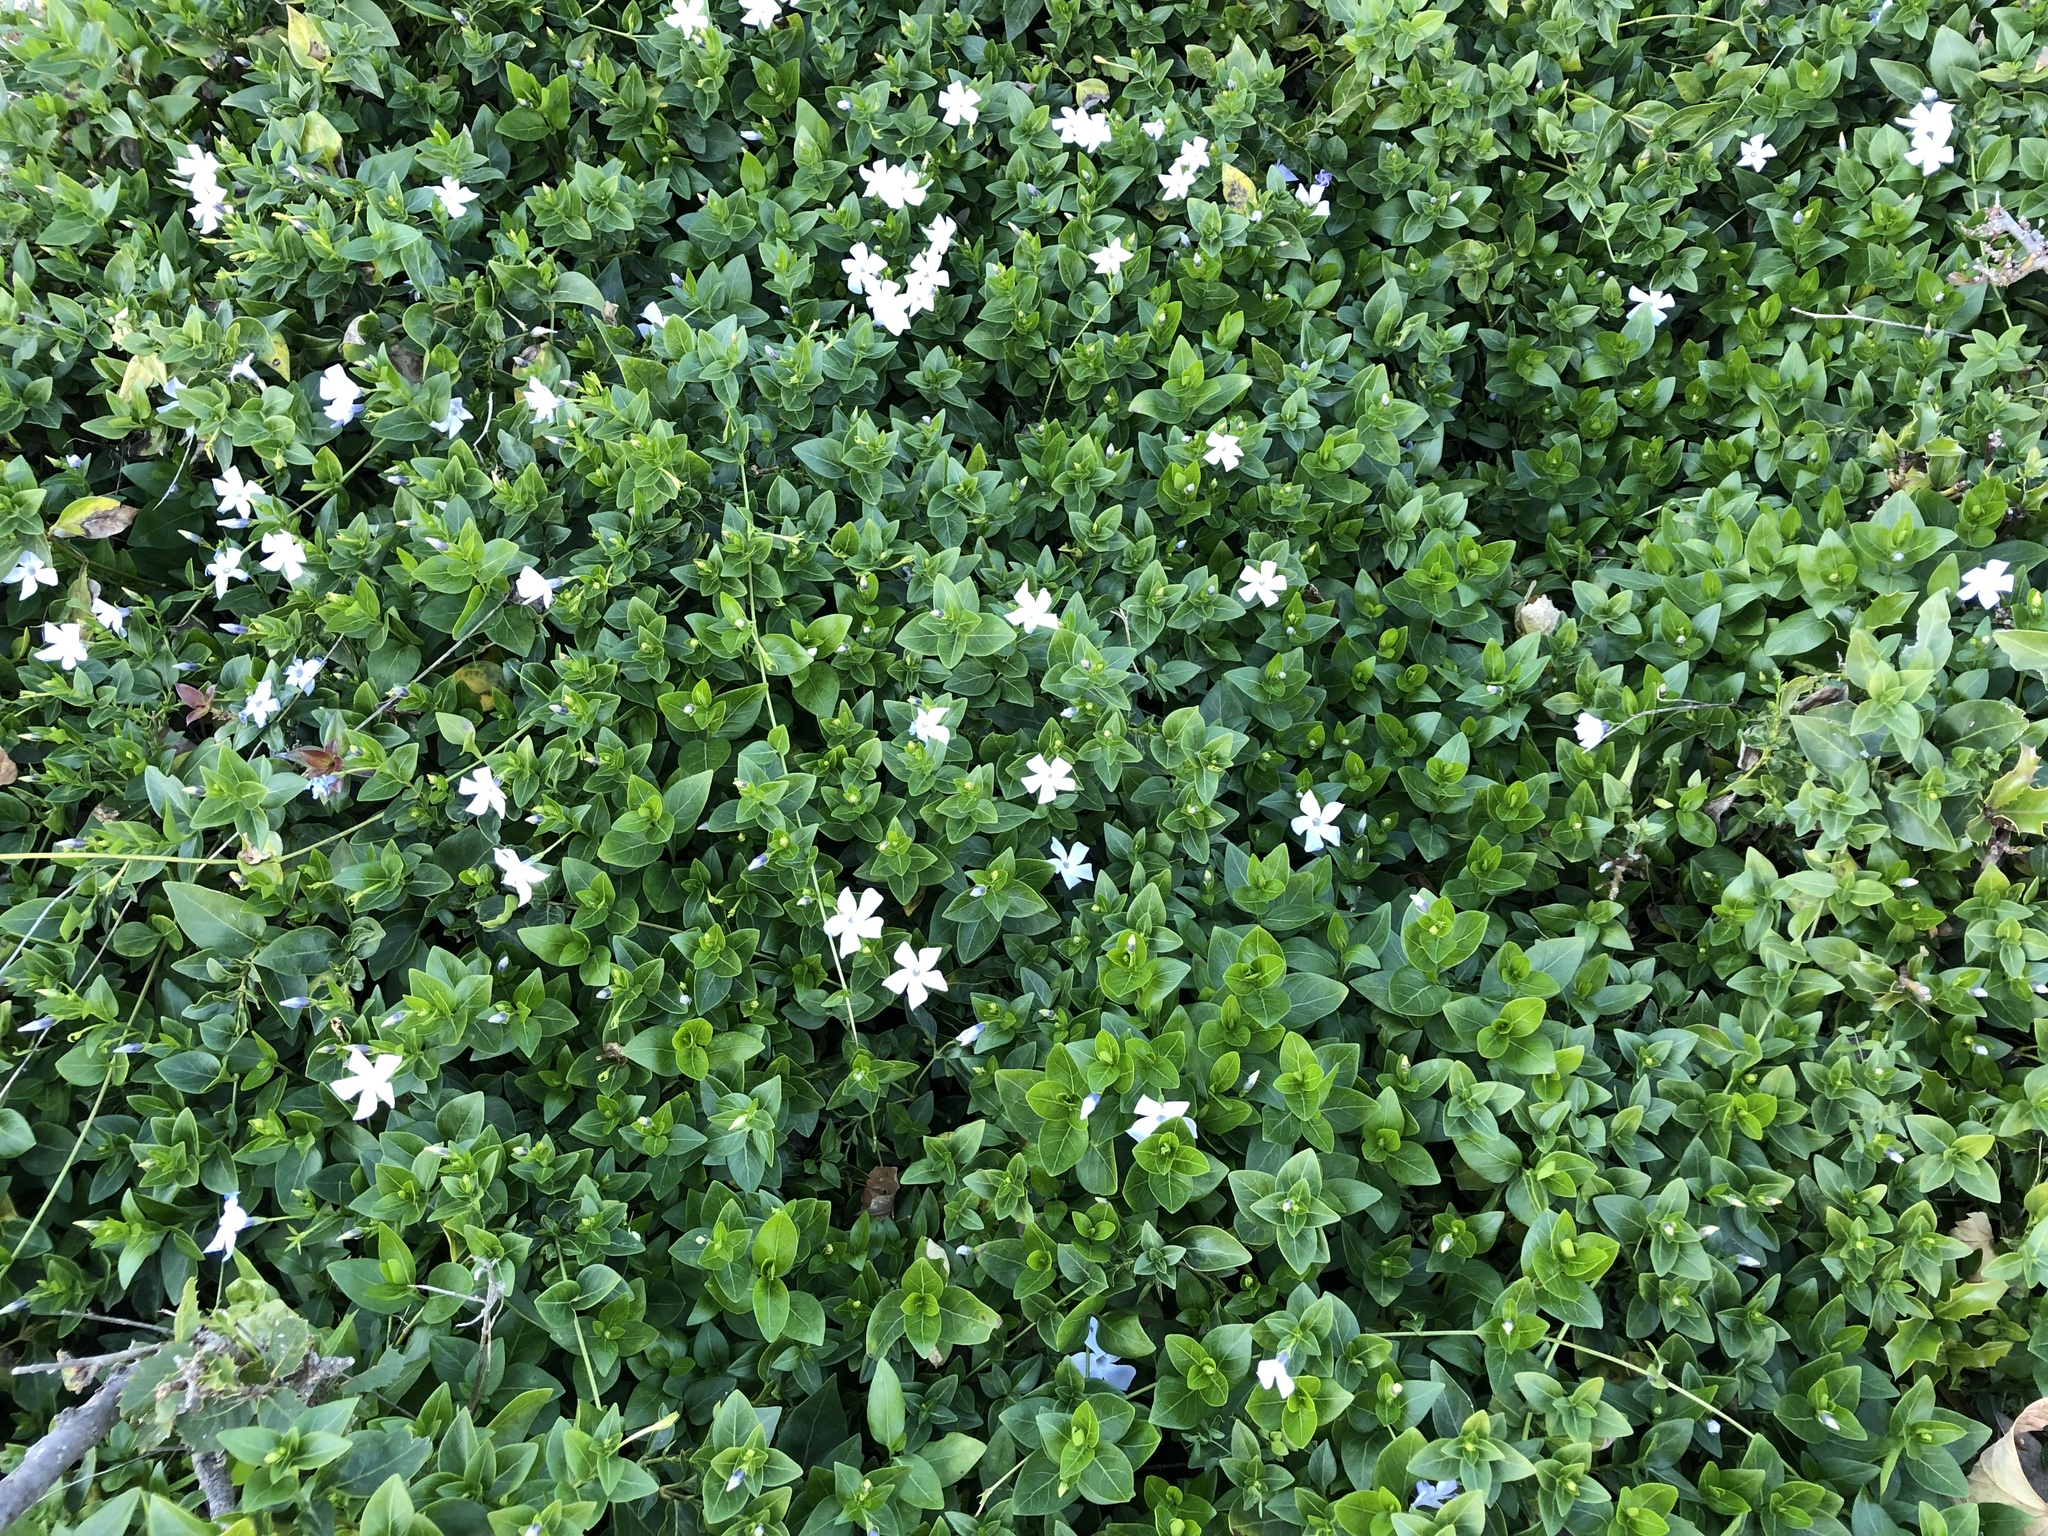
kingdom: Plantae
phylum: Tracheophyta
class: Magnoliopsida
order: Gentianales
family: Apocynaceae
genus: Vinca
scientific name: Vinca difformis
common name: Intermediate periwinkle
